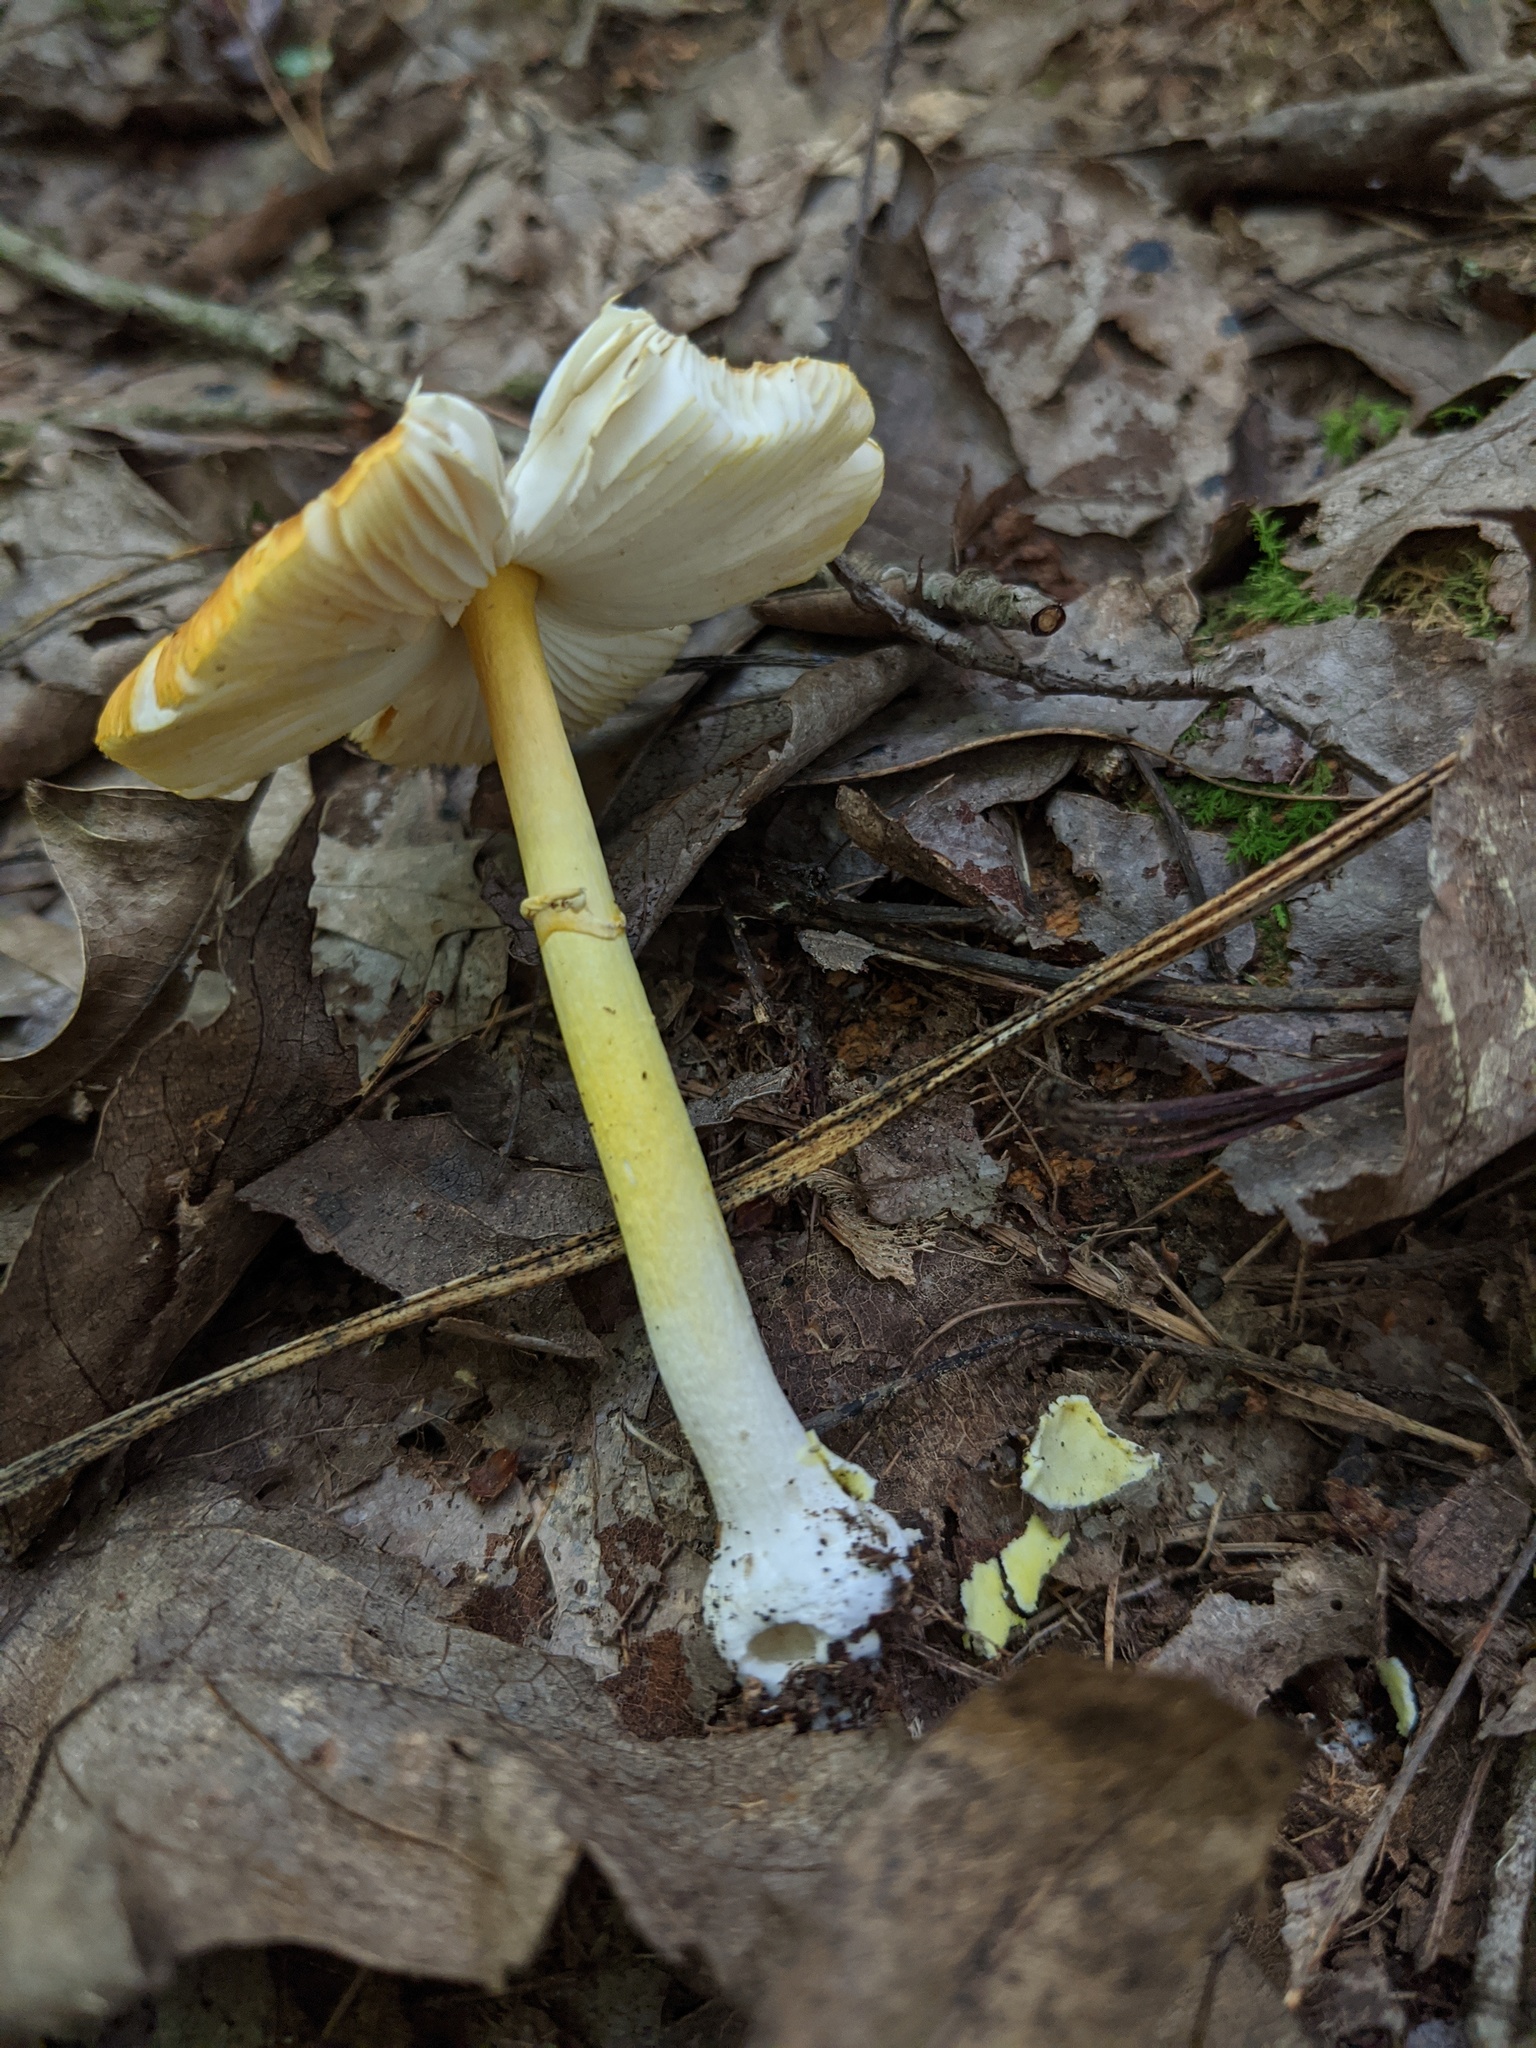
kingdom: Fungi
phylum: Basidiomycota
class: Agaricomycetes
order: Agaricales
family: Amanitaceae
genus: Amanita
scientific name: Amanita flavoconia
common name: Yellow patches
